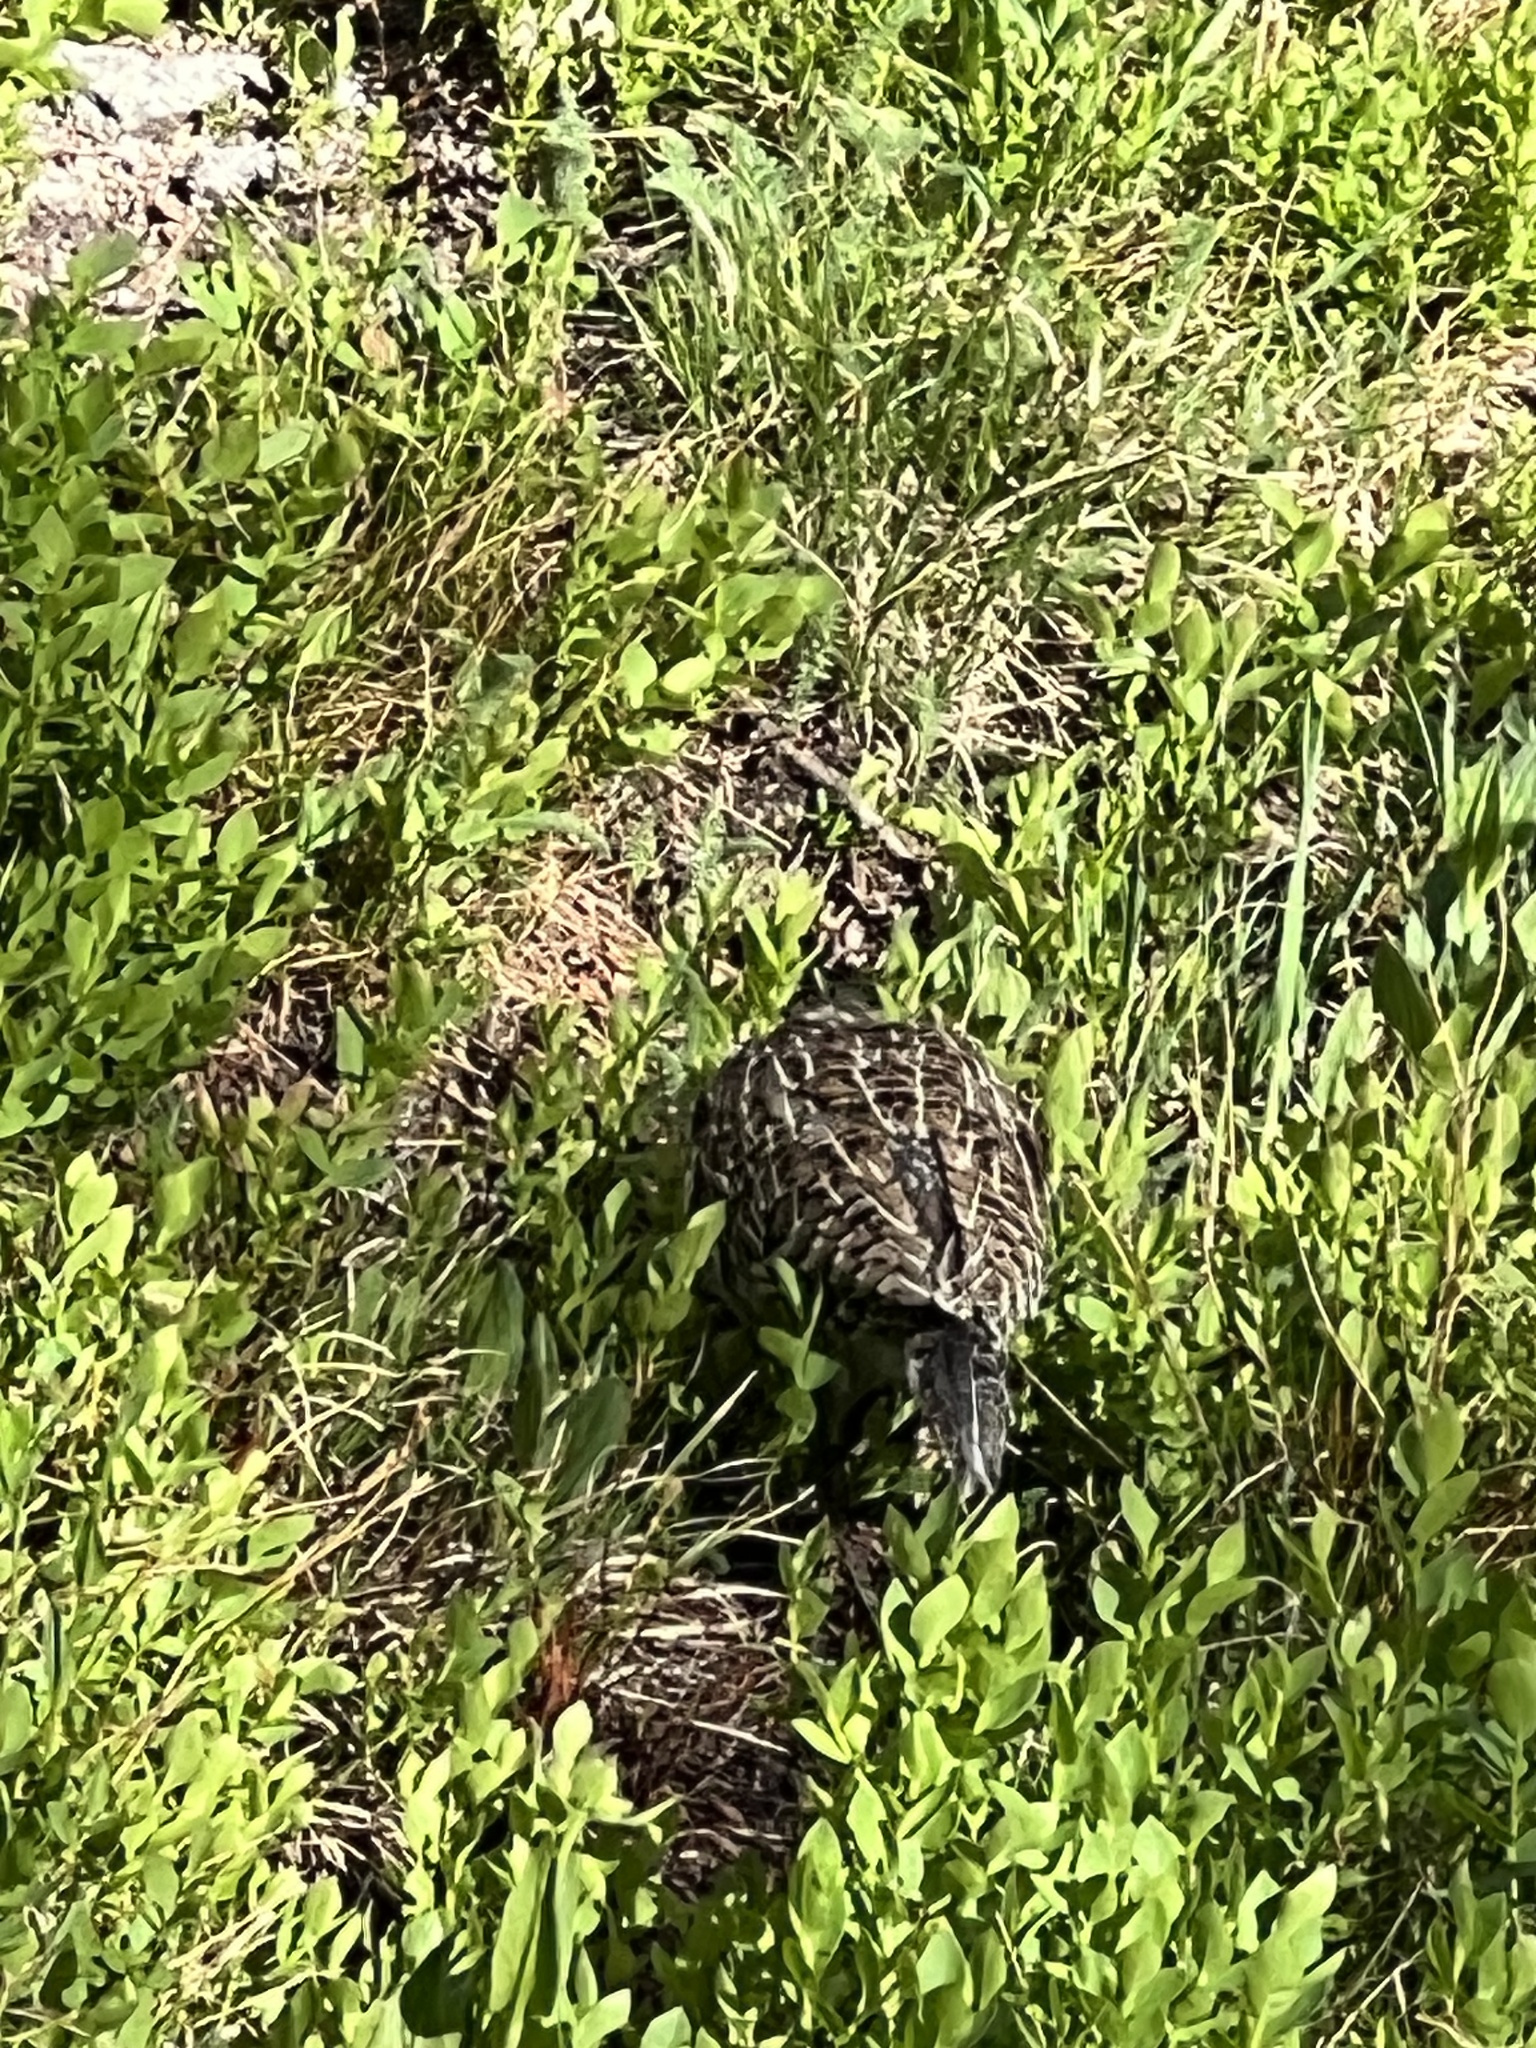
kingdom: Animalia
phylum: Chordata
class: Aves
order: Galliformes
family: Phasianidae
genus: Dendragapus
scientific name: Dendragapus obscurus
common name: Dusky grouse
